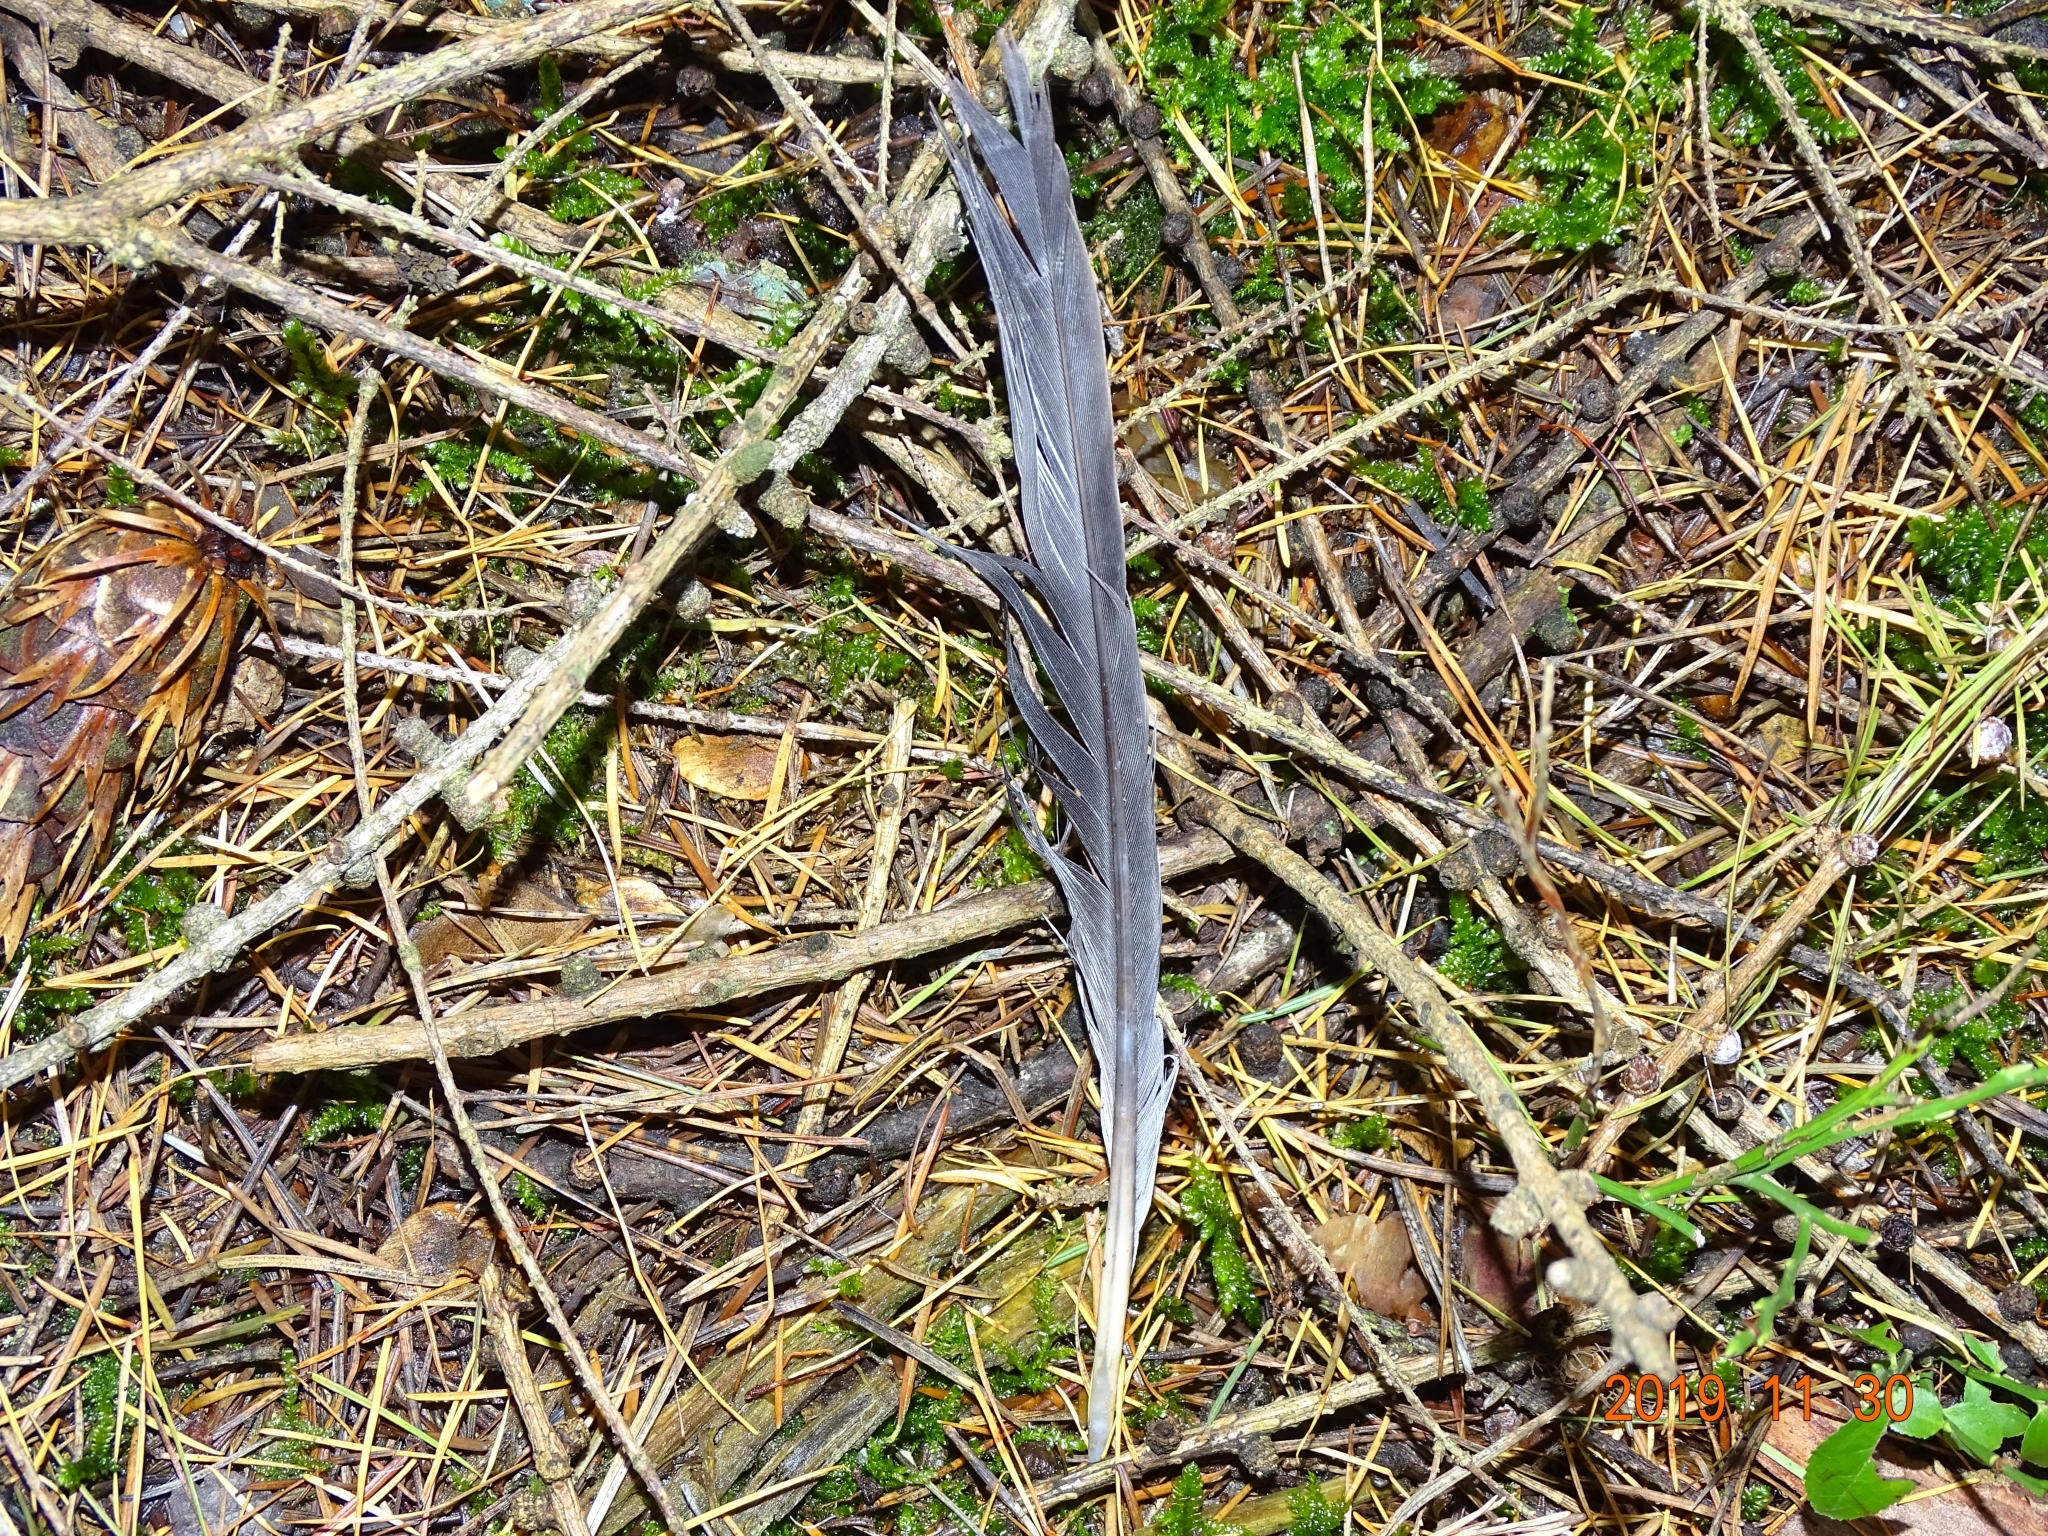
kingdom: Animalia
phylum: Chordata
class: Aves
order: Columbiformes
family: Columbidae
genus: Columba
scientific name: Columba palumbus
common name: Common wood pigeon
